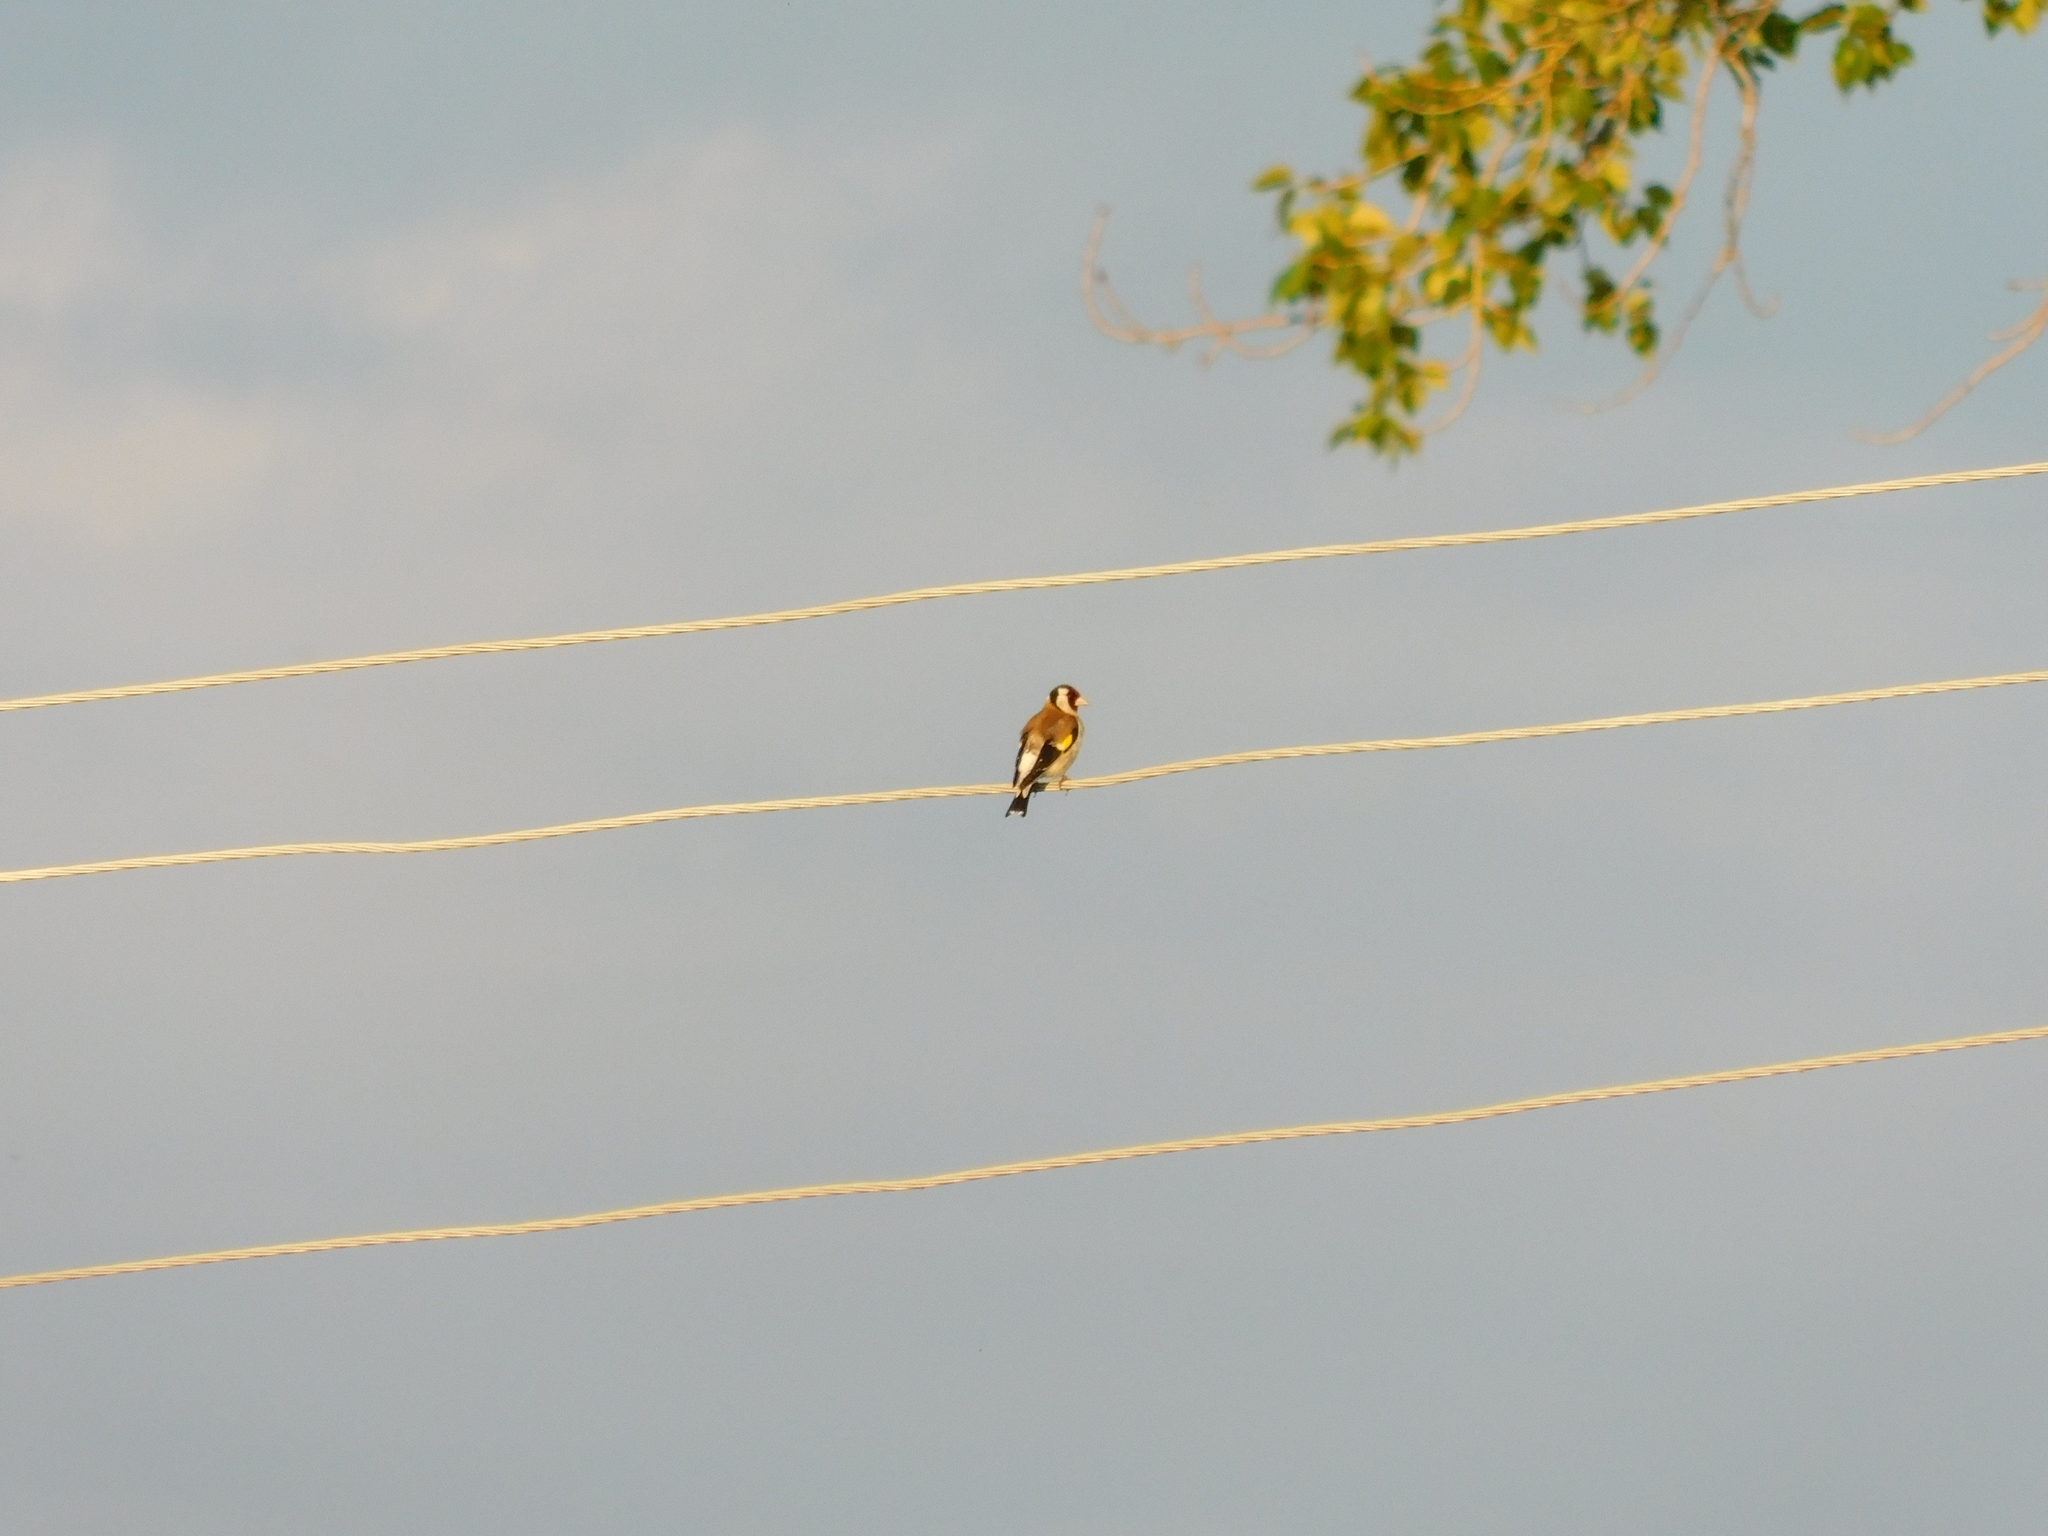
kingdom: Animalia
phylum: Chordata
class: Aves
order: Passeriformes
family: Fringillidae
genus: Carduelis
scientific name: Carduelis carduelis
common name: European goldfinch
